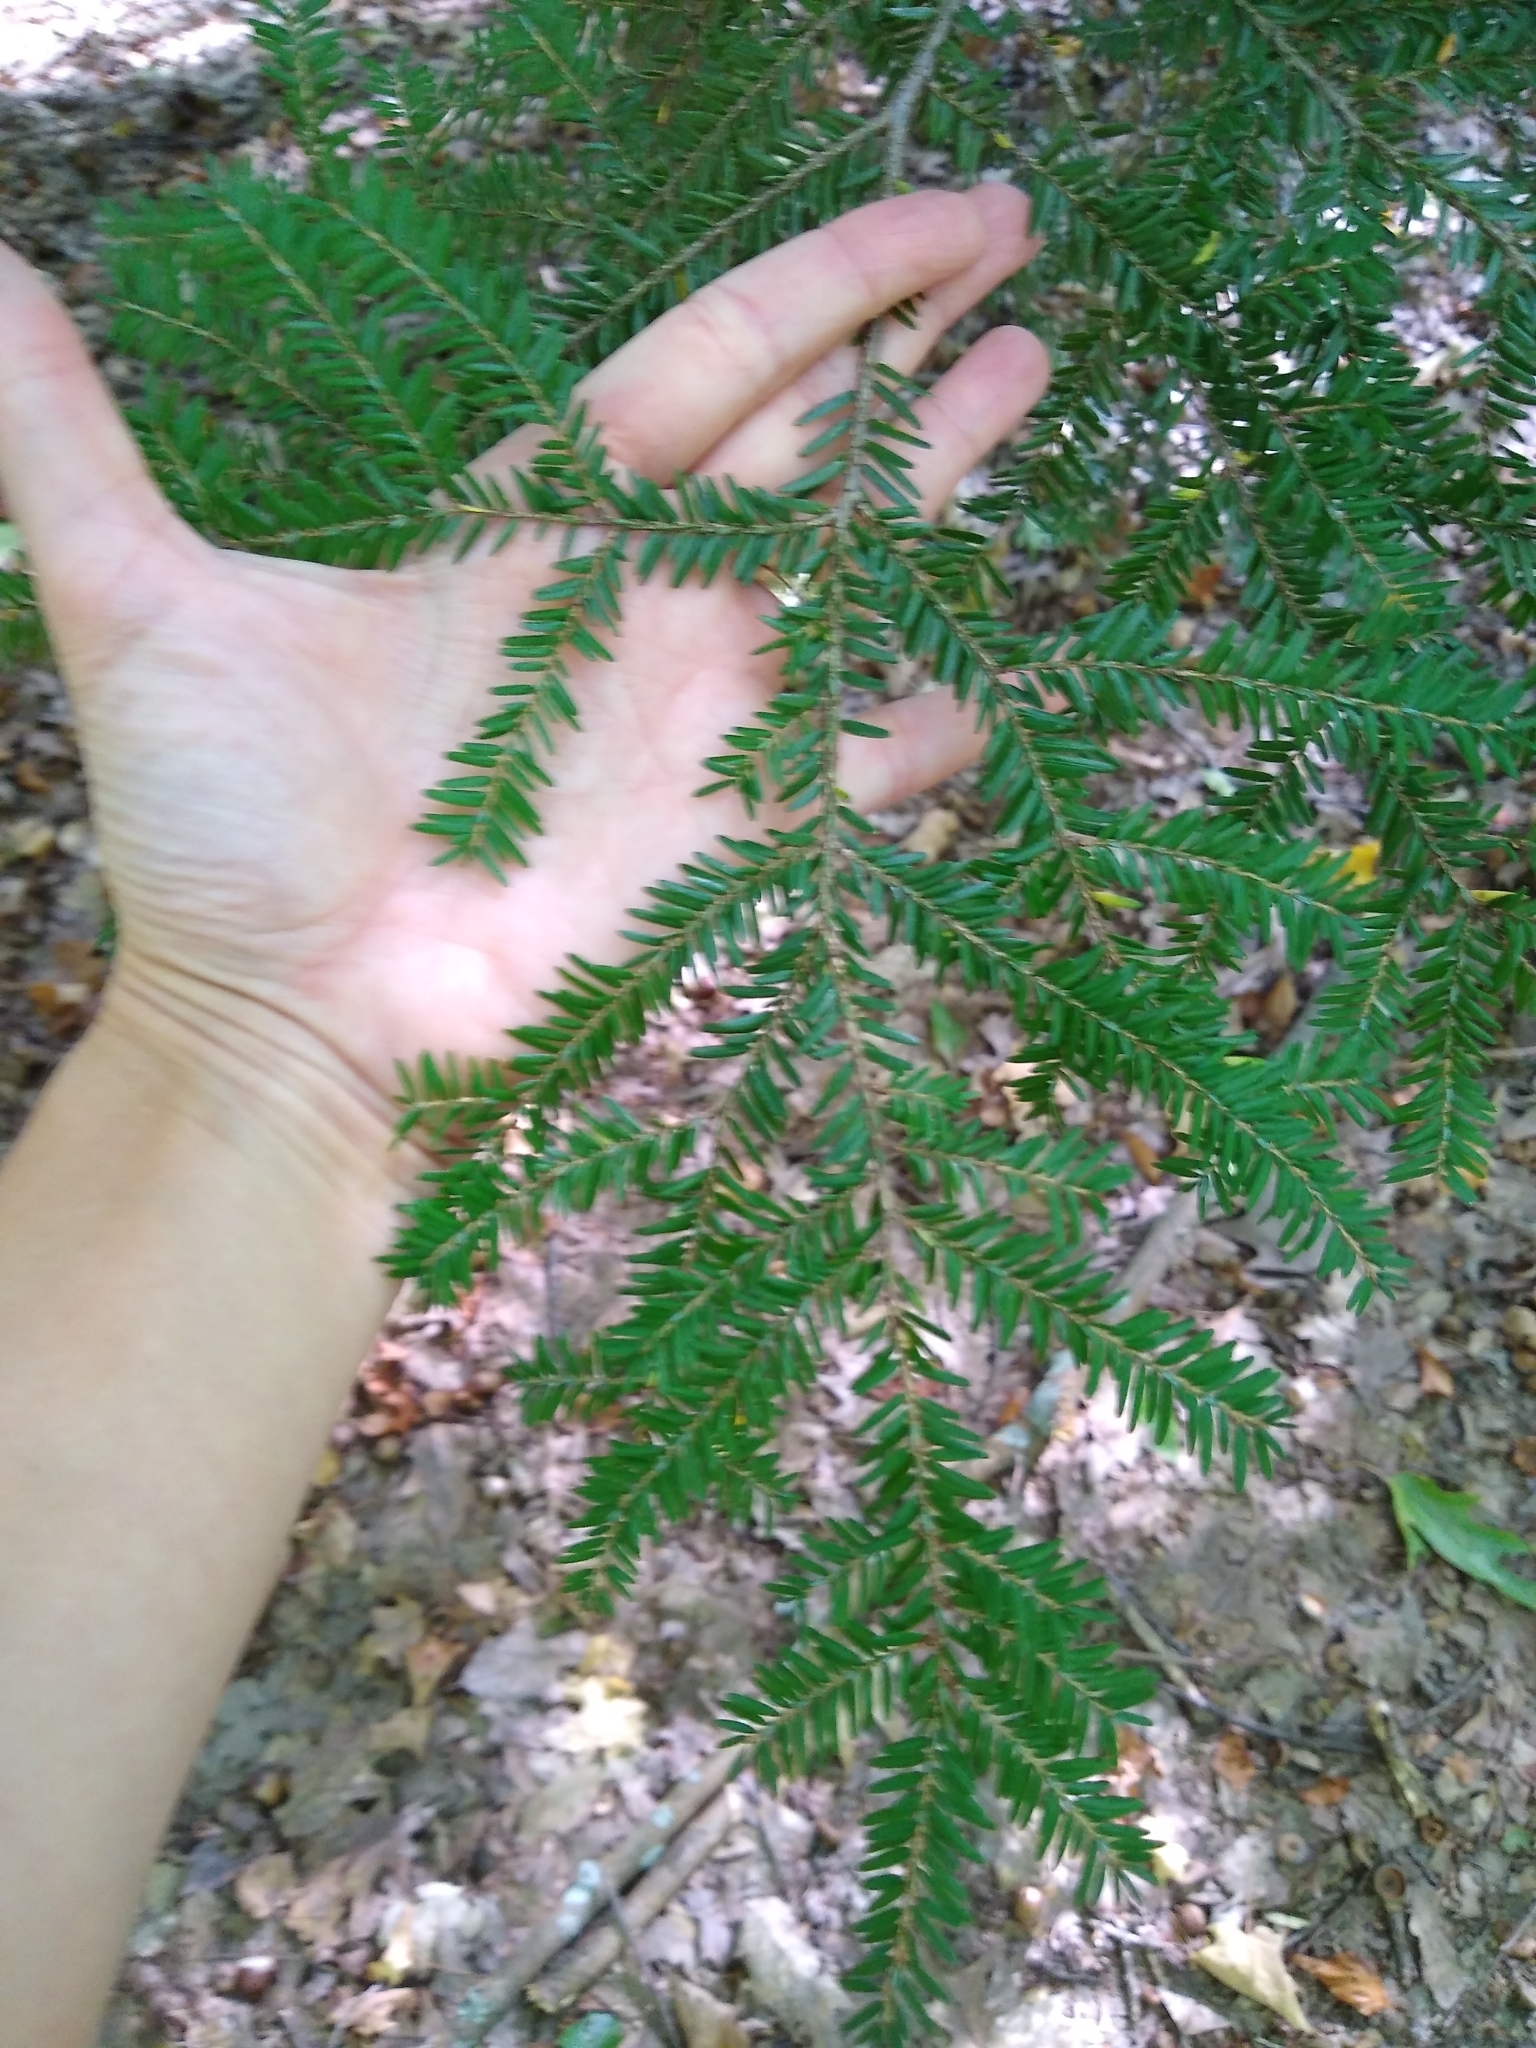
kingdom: Plantae
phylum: Tracheophyta
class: Pinopsida
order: Pinales
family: Pinaceae
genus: Tsuga
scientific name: Tsuga canadensis
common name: Eastern hemlock
